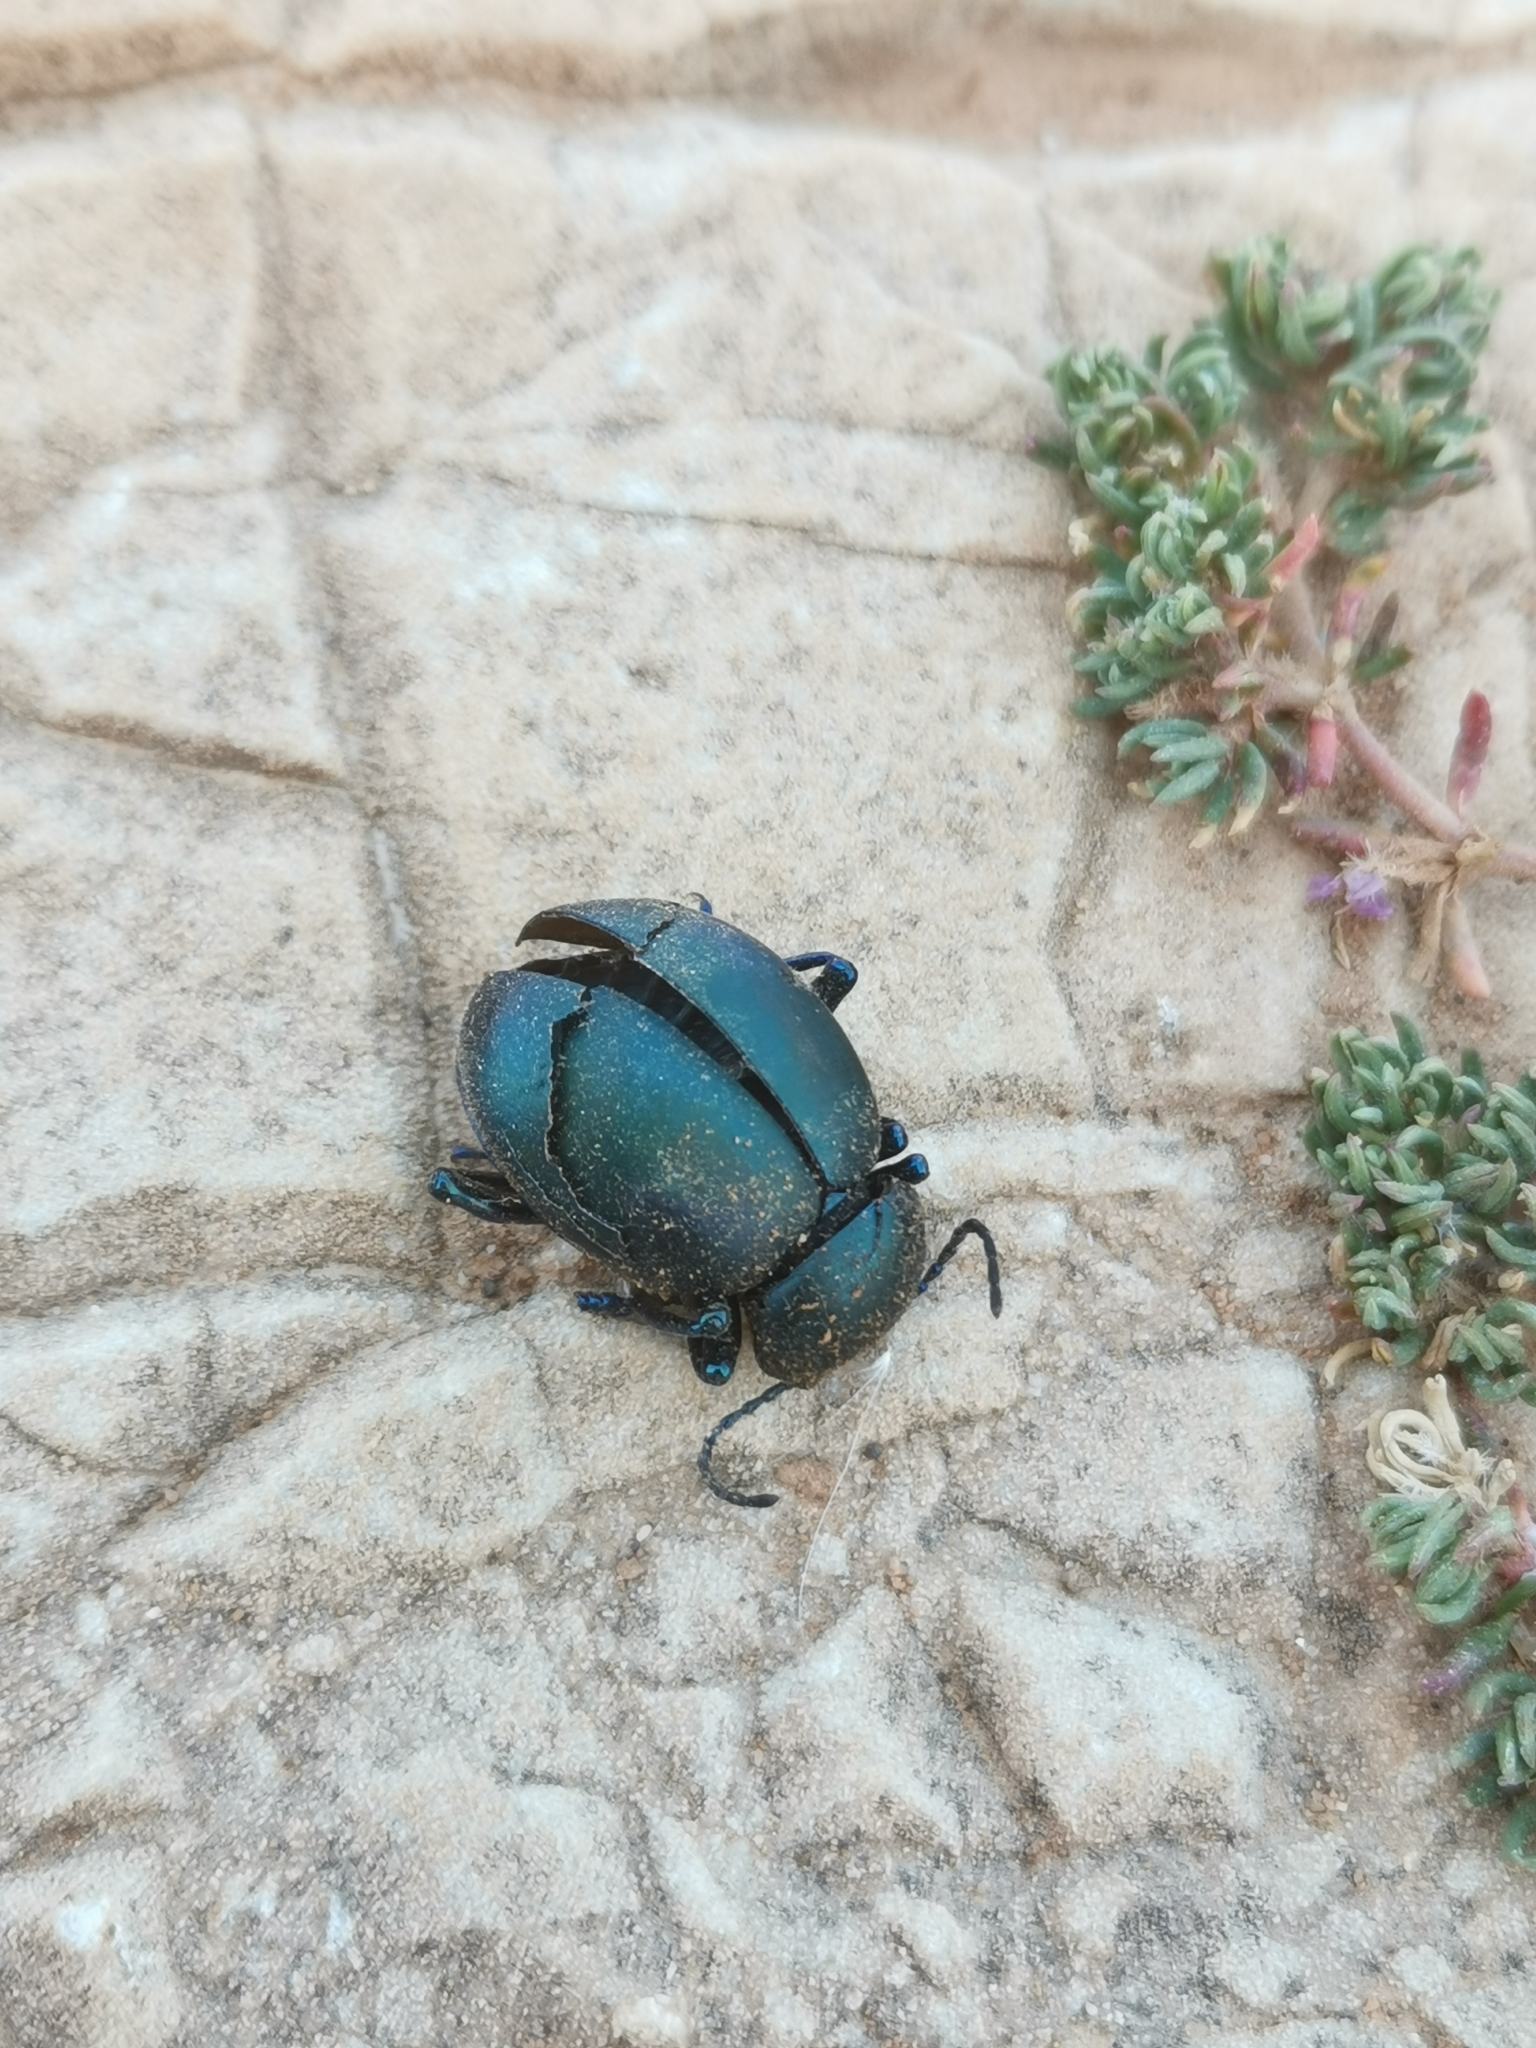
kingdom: Animalia
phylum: Arthropoda
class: Insecta
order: Coleoptera
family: Chrysomelidae
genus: Timarcha
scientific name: Timarcha balearica
